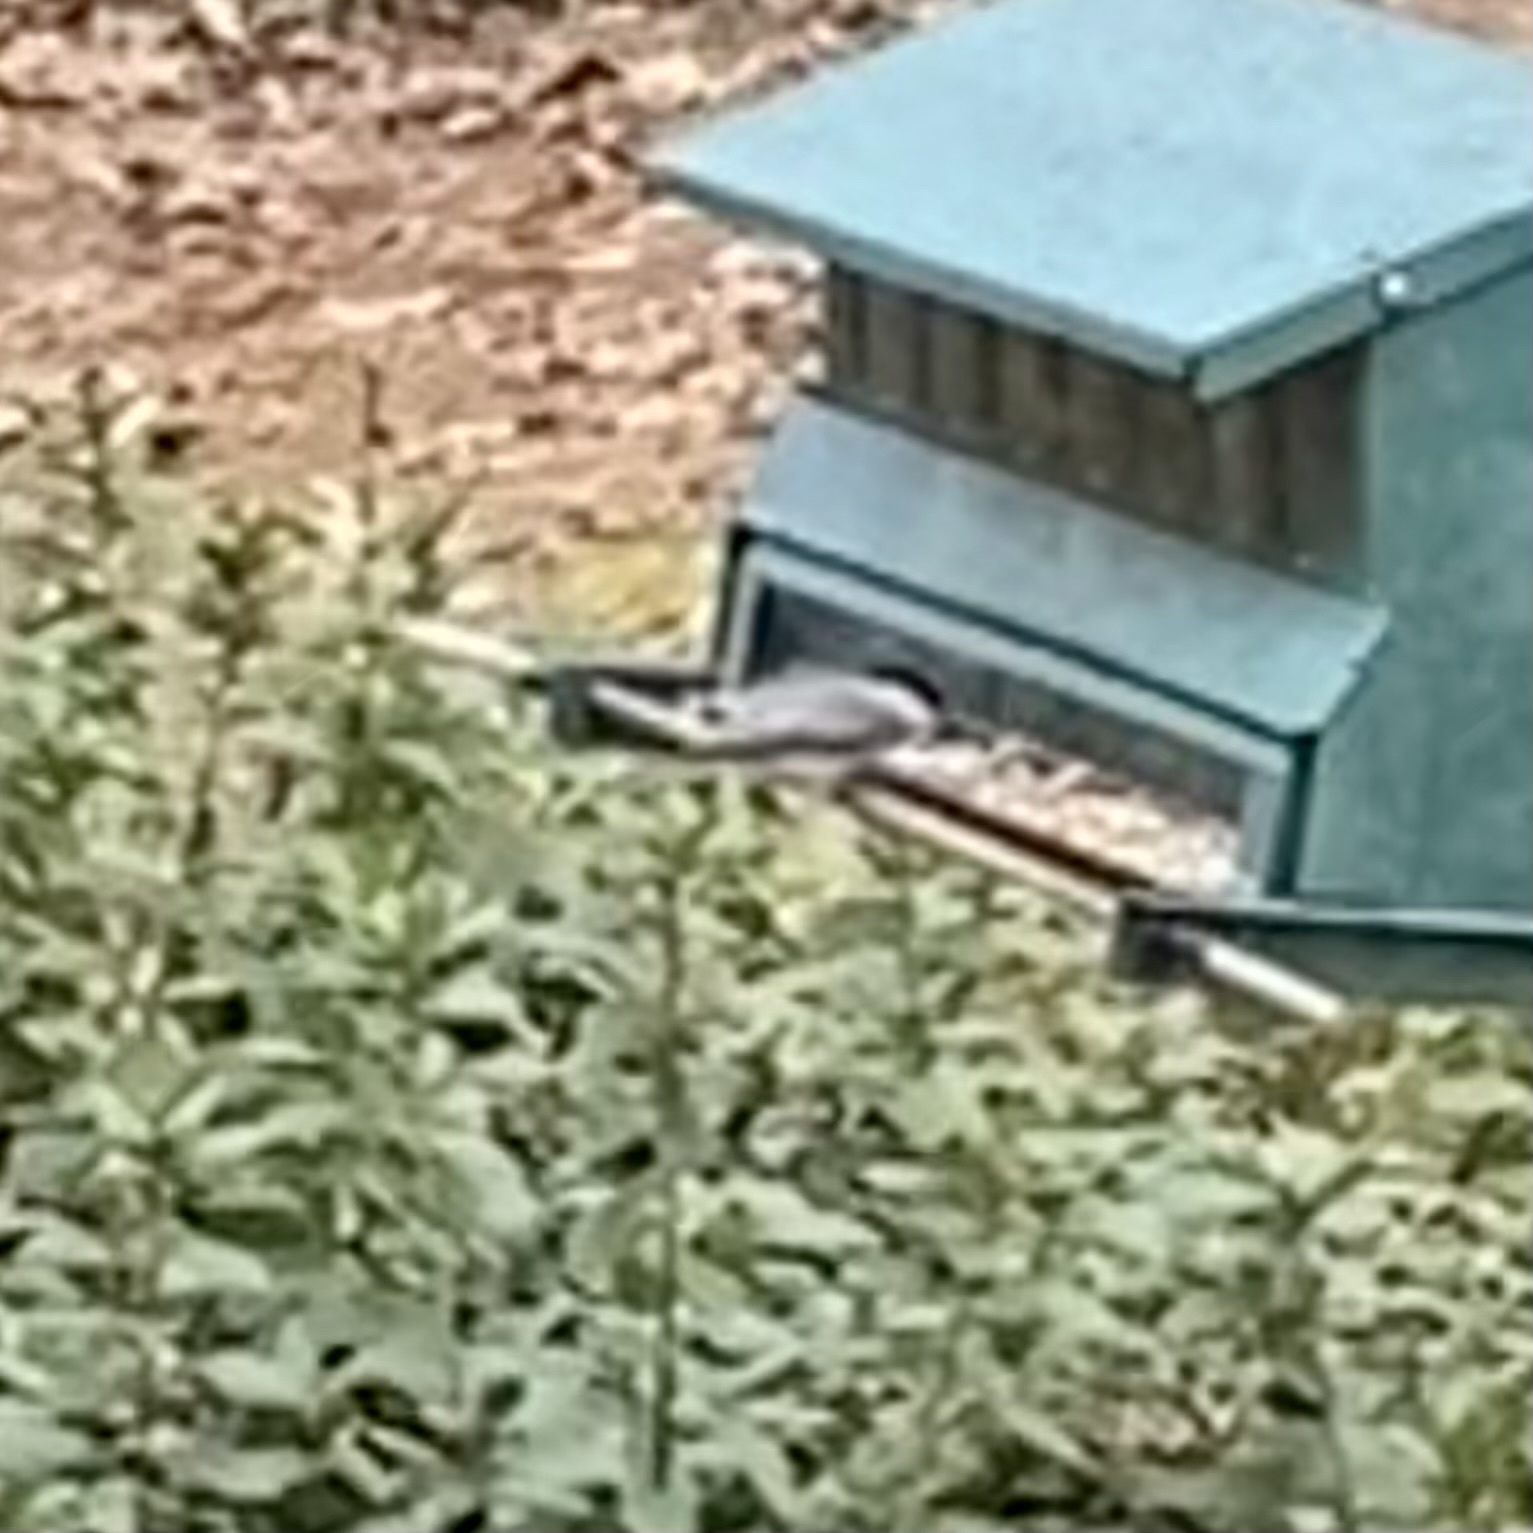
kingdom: Animalia
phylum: Chordata
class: Aves
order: Passeriformes
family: Paridae
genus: Poecile
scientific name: Poecile carolinensis
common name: Carolina chickadee
